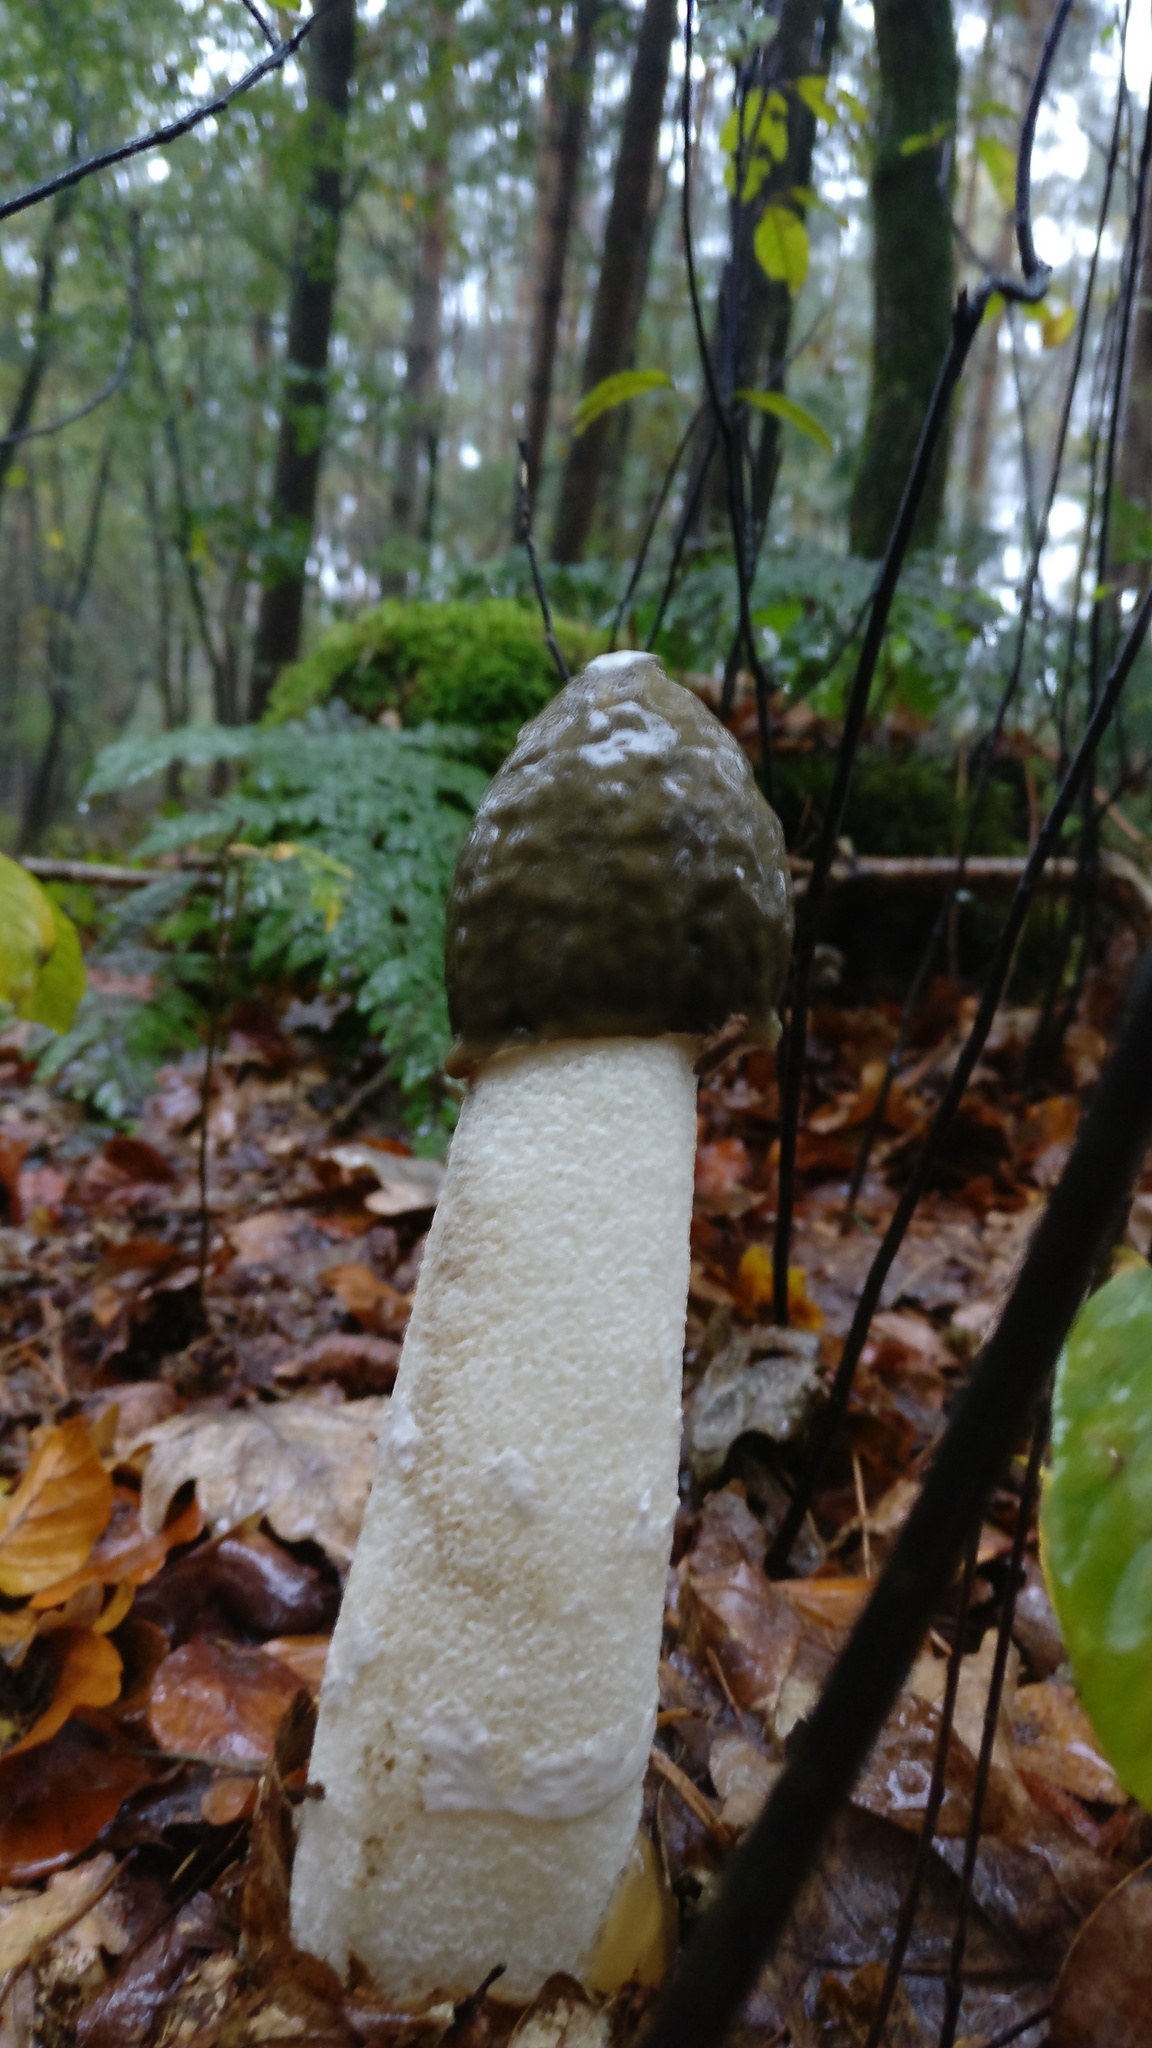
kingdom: Fungi
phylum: Basidiomycota
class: Agaricomycetes
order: Phallales
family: Phallaceae
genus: Phallus
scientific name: Phallus impudicus
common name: Common stinkhorn
